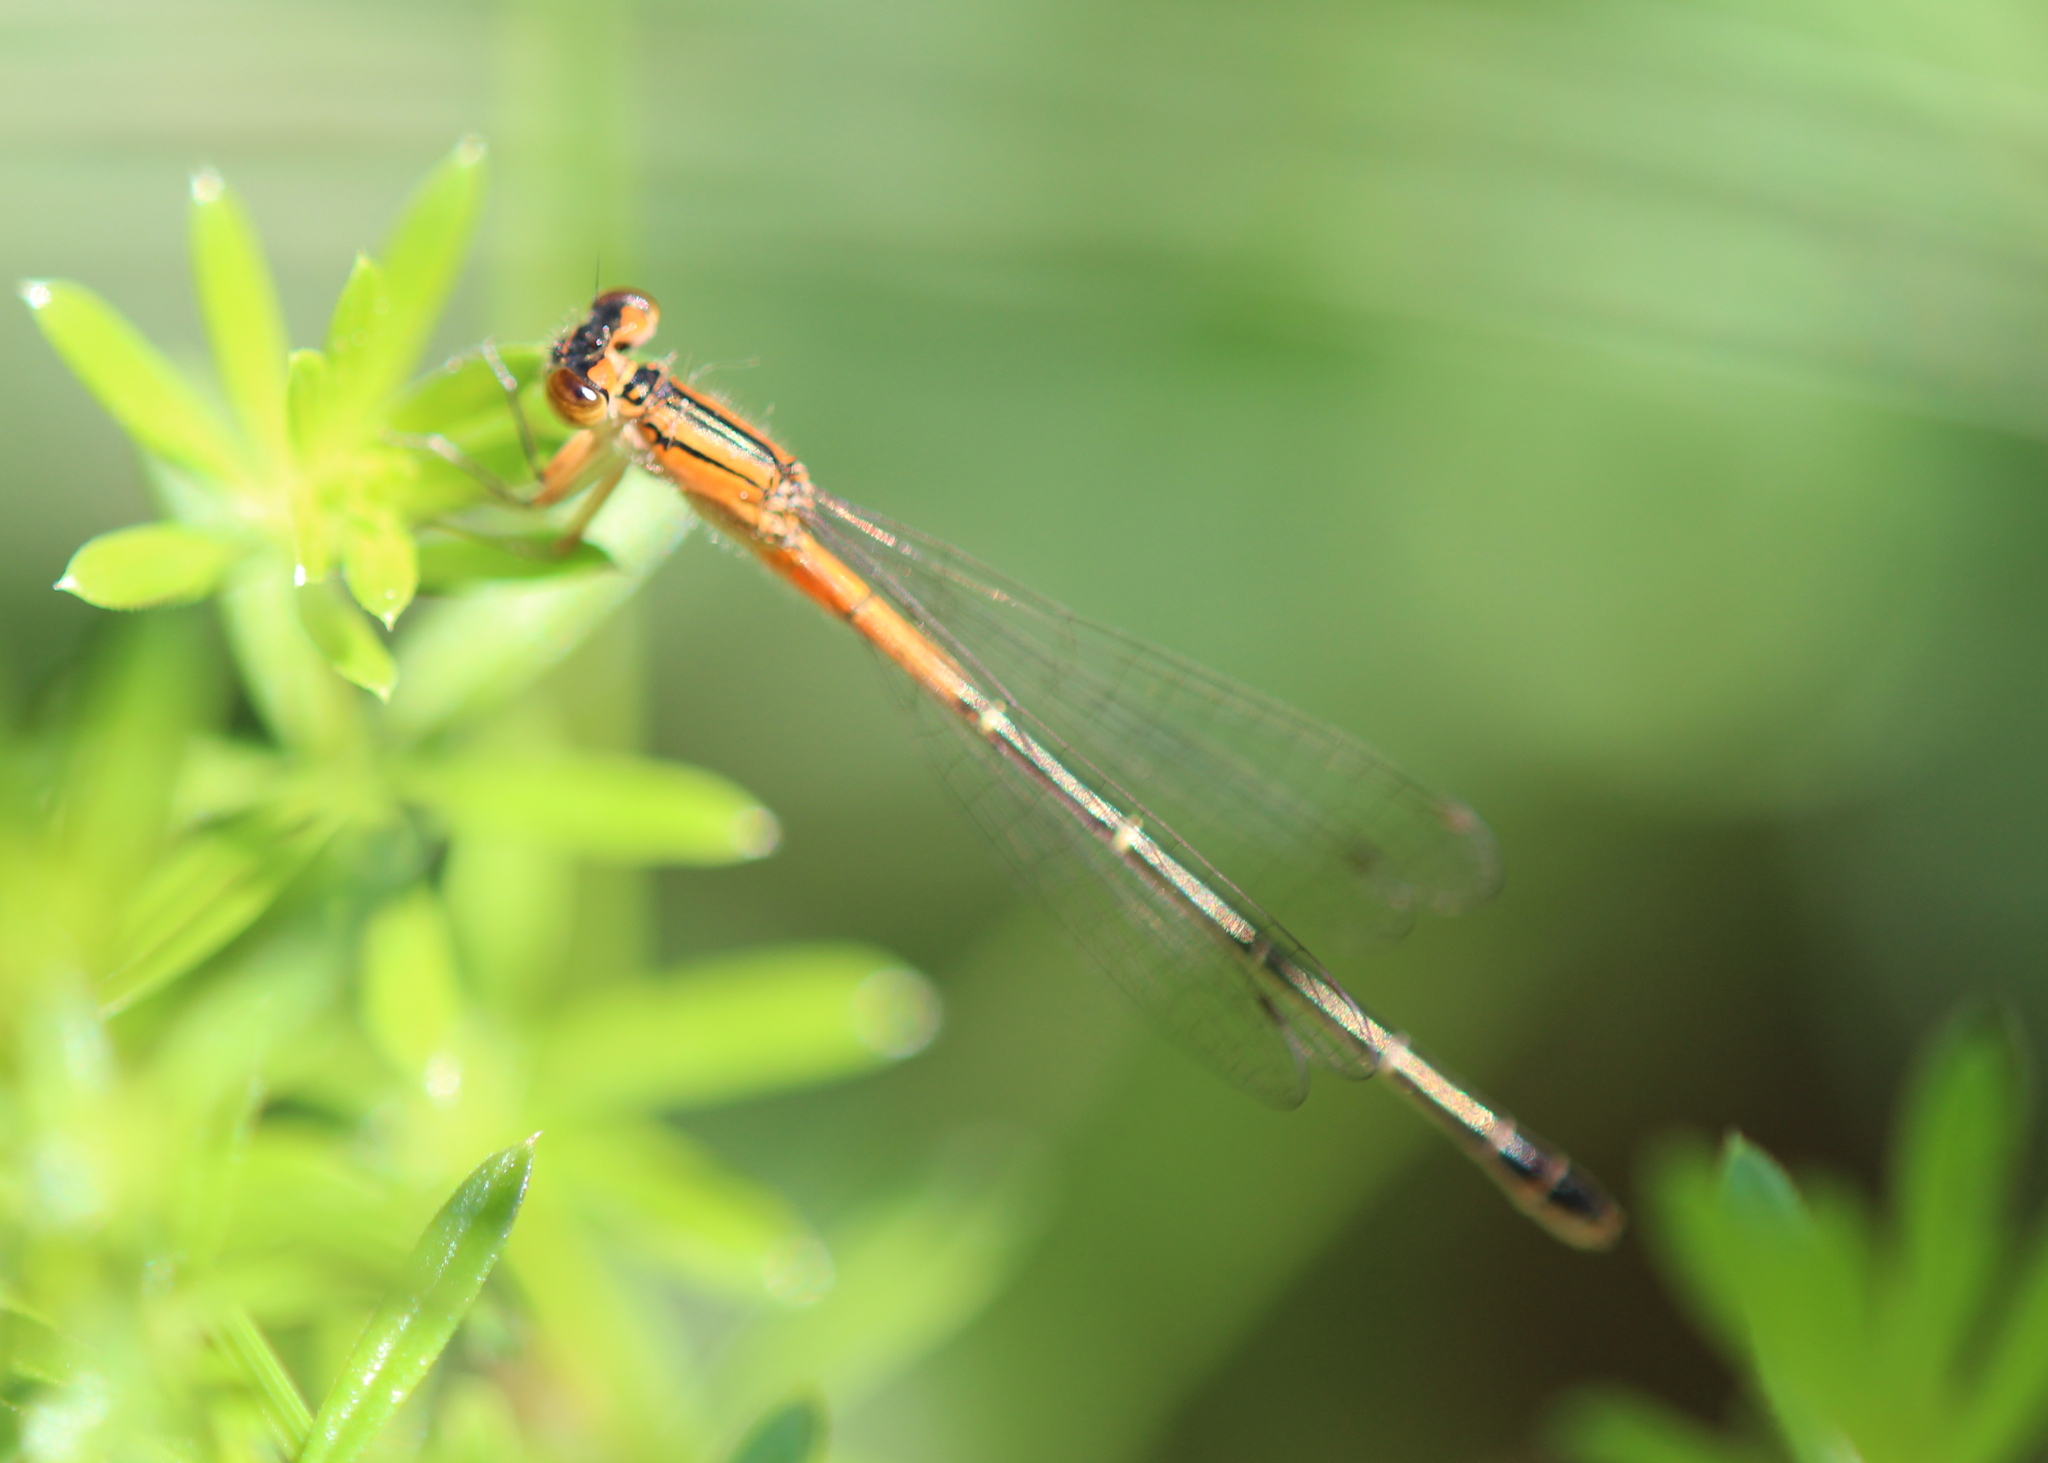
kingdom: Animalia
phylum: Arthropoda
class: Insecta
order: Odonata
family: Coenagrionidae
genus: Ischnura
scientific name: Ischnura verticalis
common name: Eastern forktail
